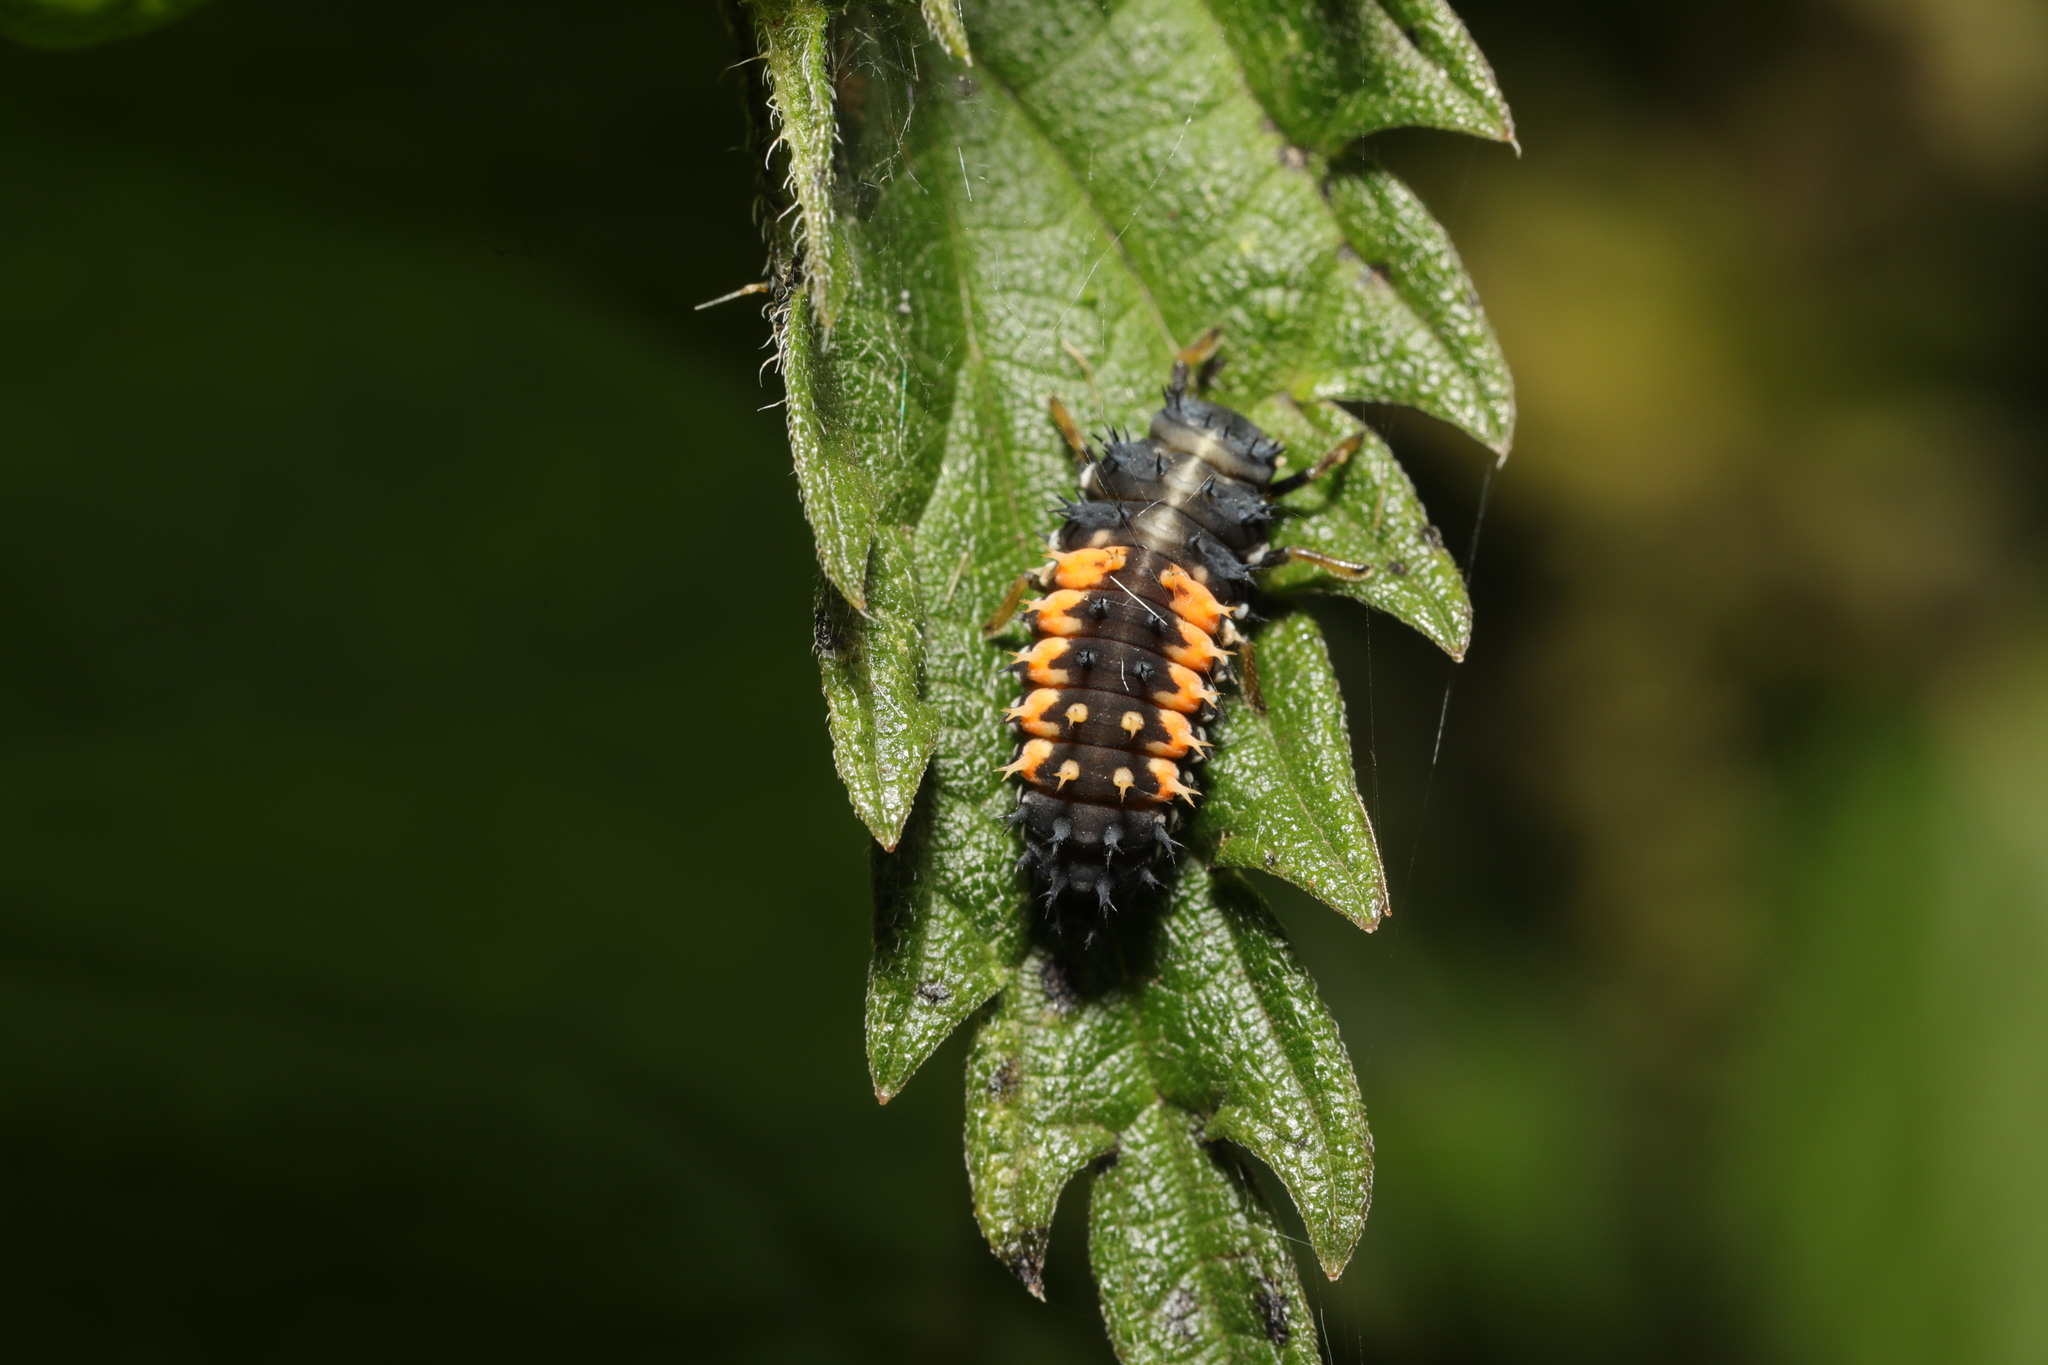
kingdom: Animalia
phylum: Arthropoda
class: Insecta
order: Coleoptera
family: Coccinellidae
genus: Harmonia
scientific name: Harmonia axyridis
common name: Harlequin ladybird
